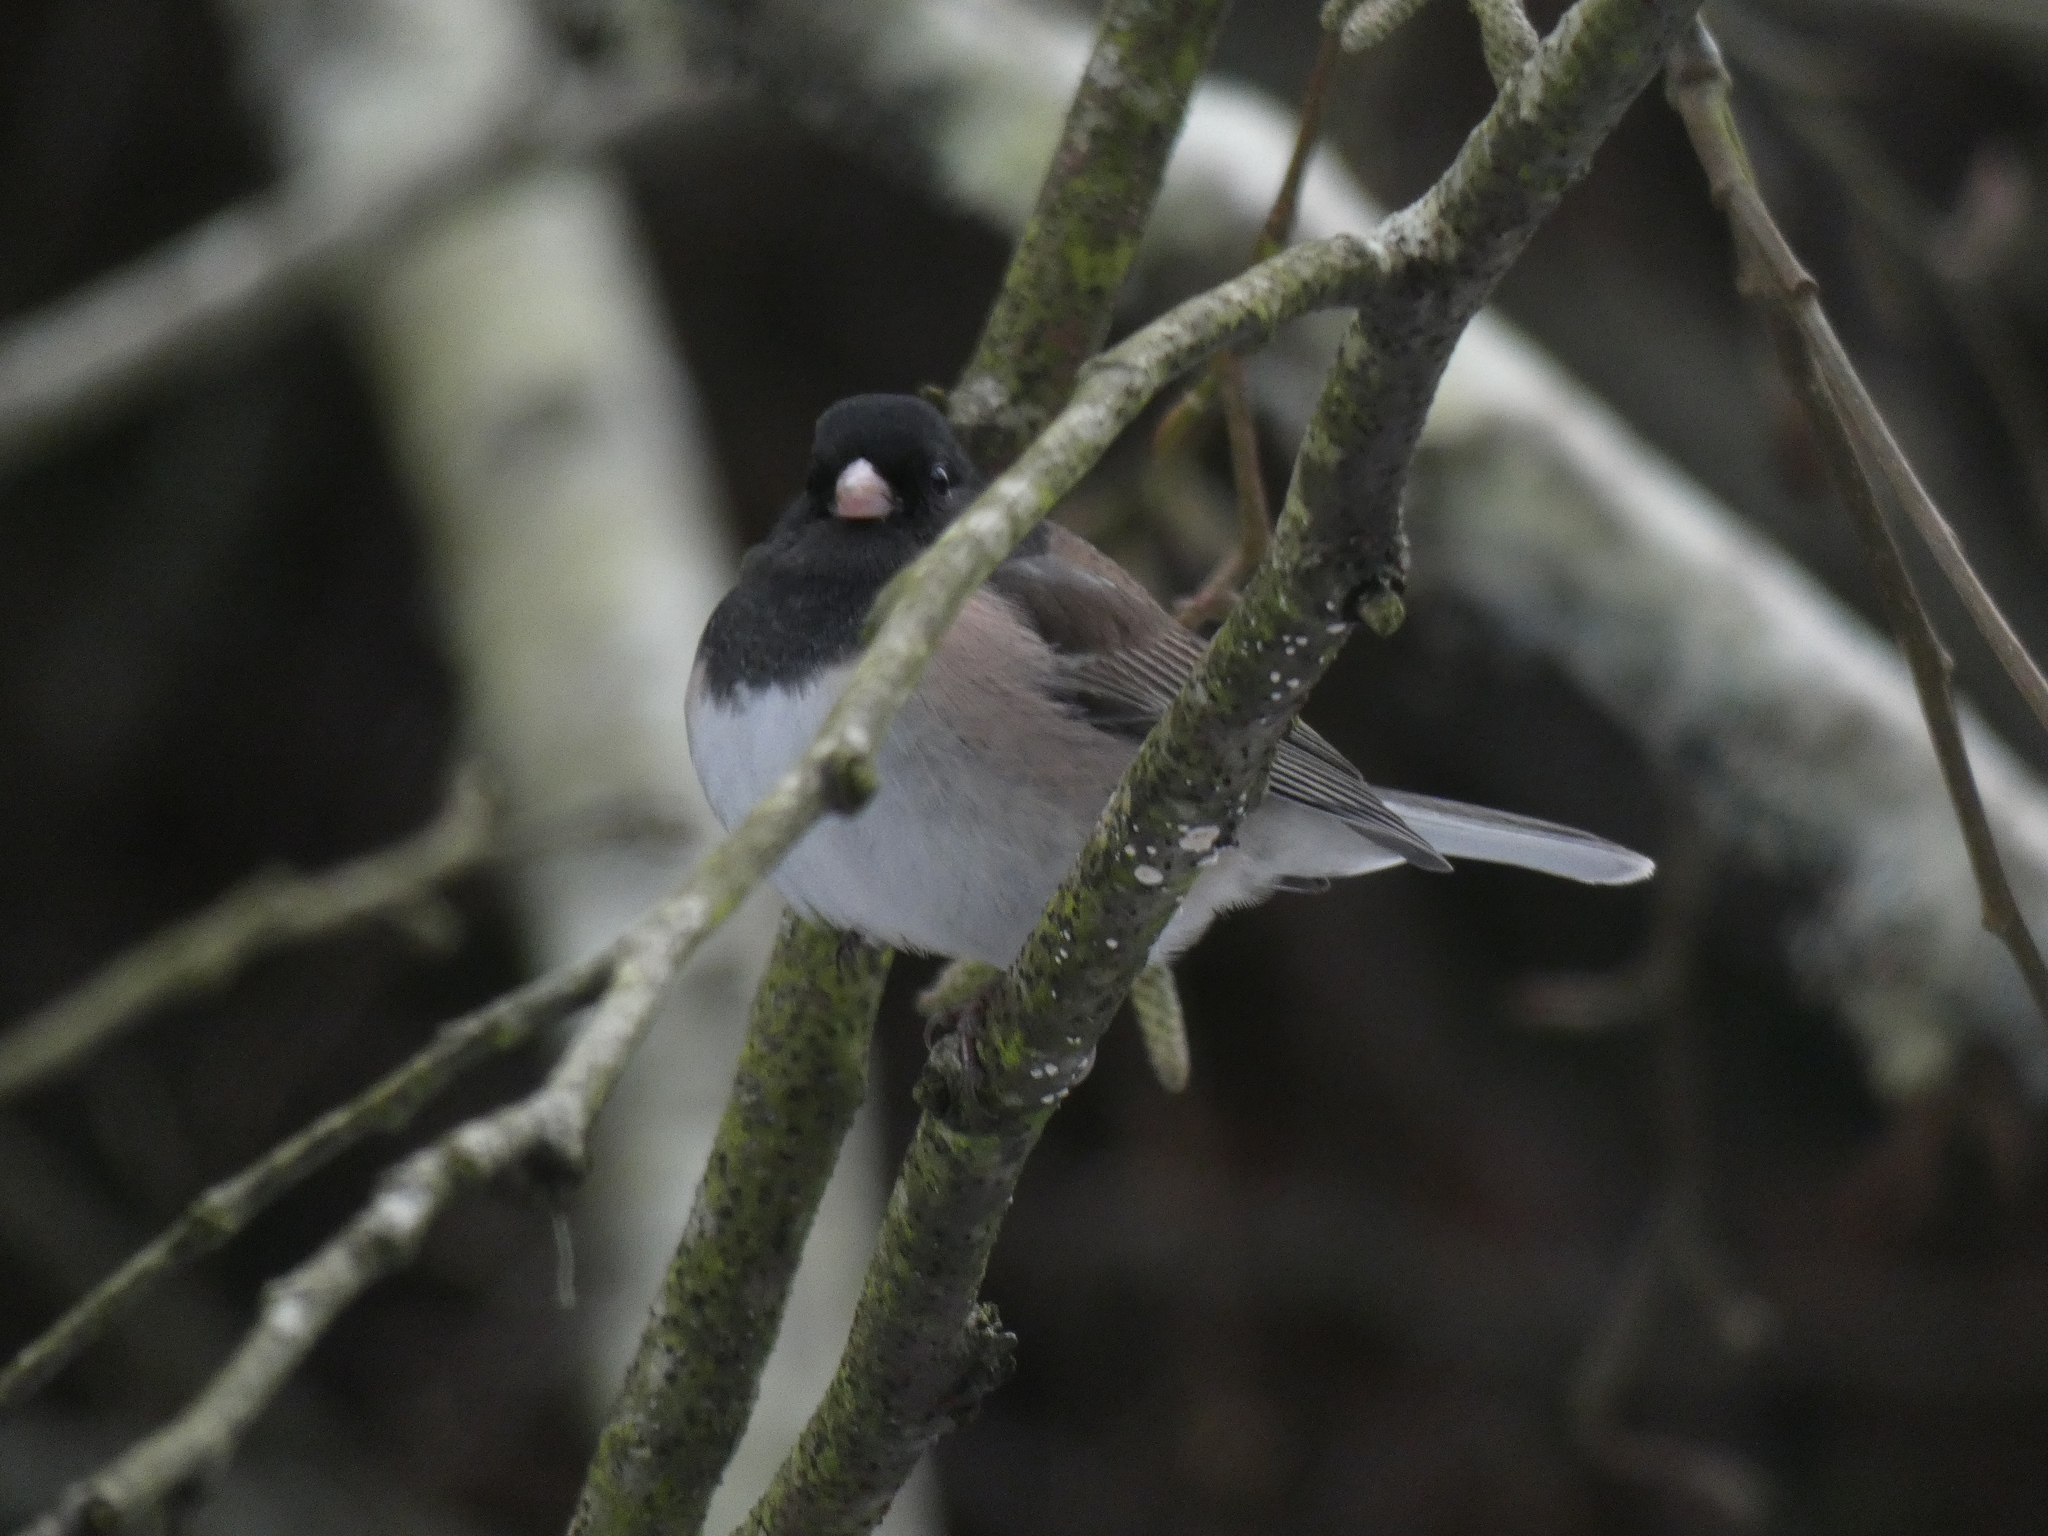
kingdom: Animalia
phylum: Chordata
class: Aves
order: Passeriformes
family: Passerellidae
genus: Junco
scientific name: Junco hyemalis
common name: Dark-eyed junco
